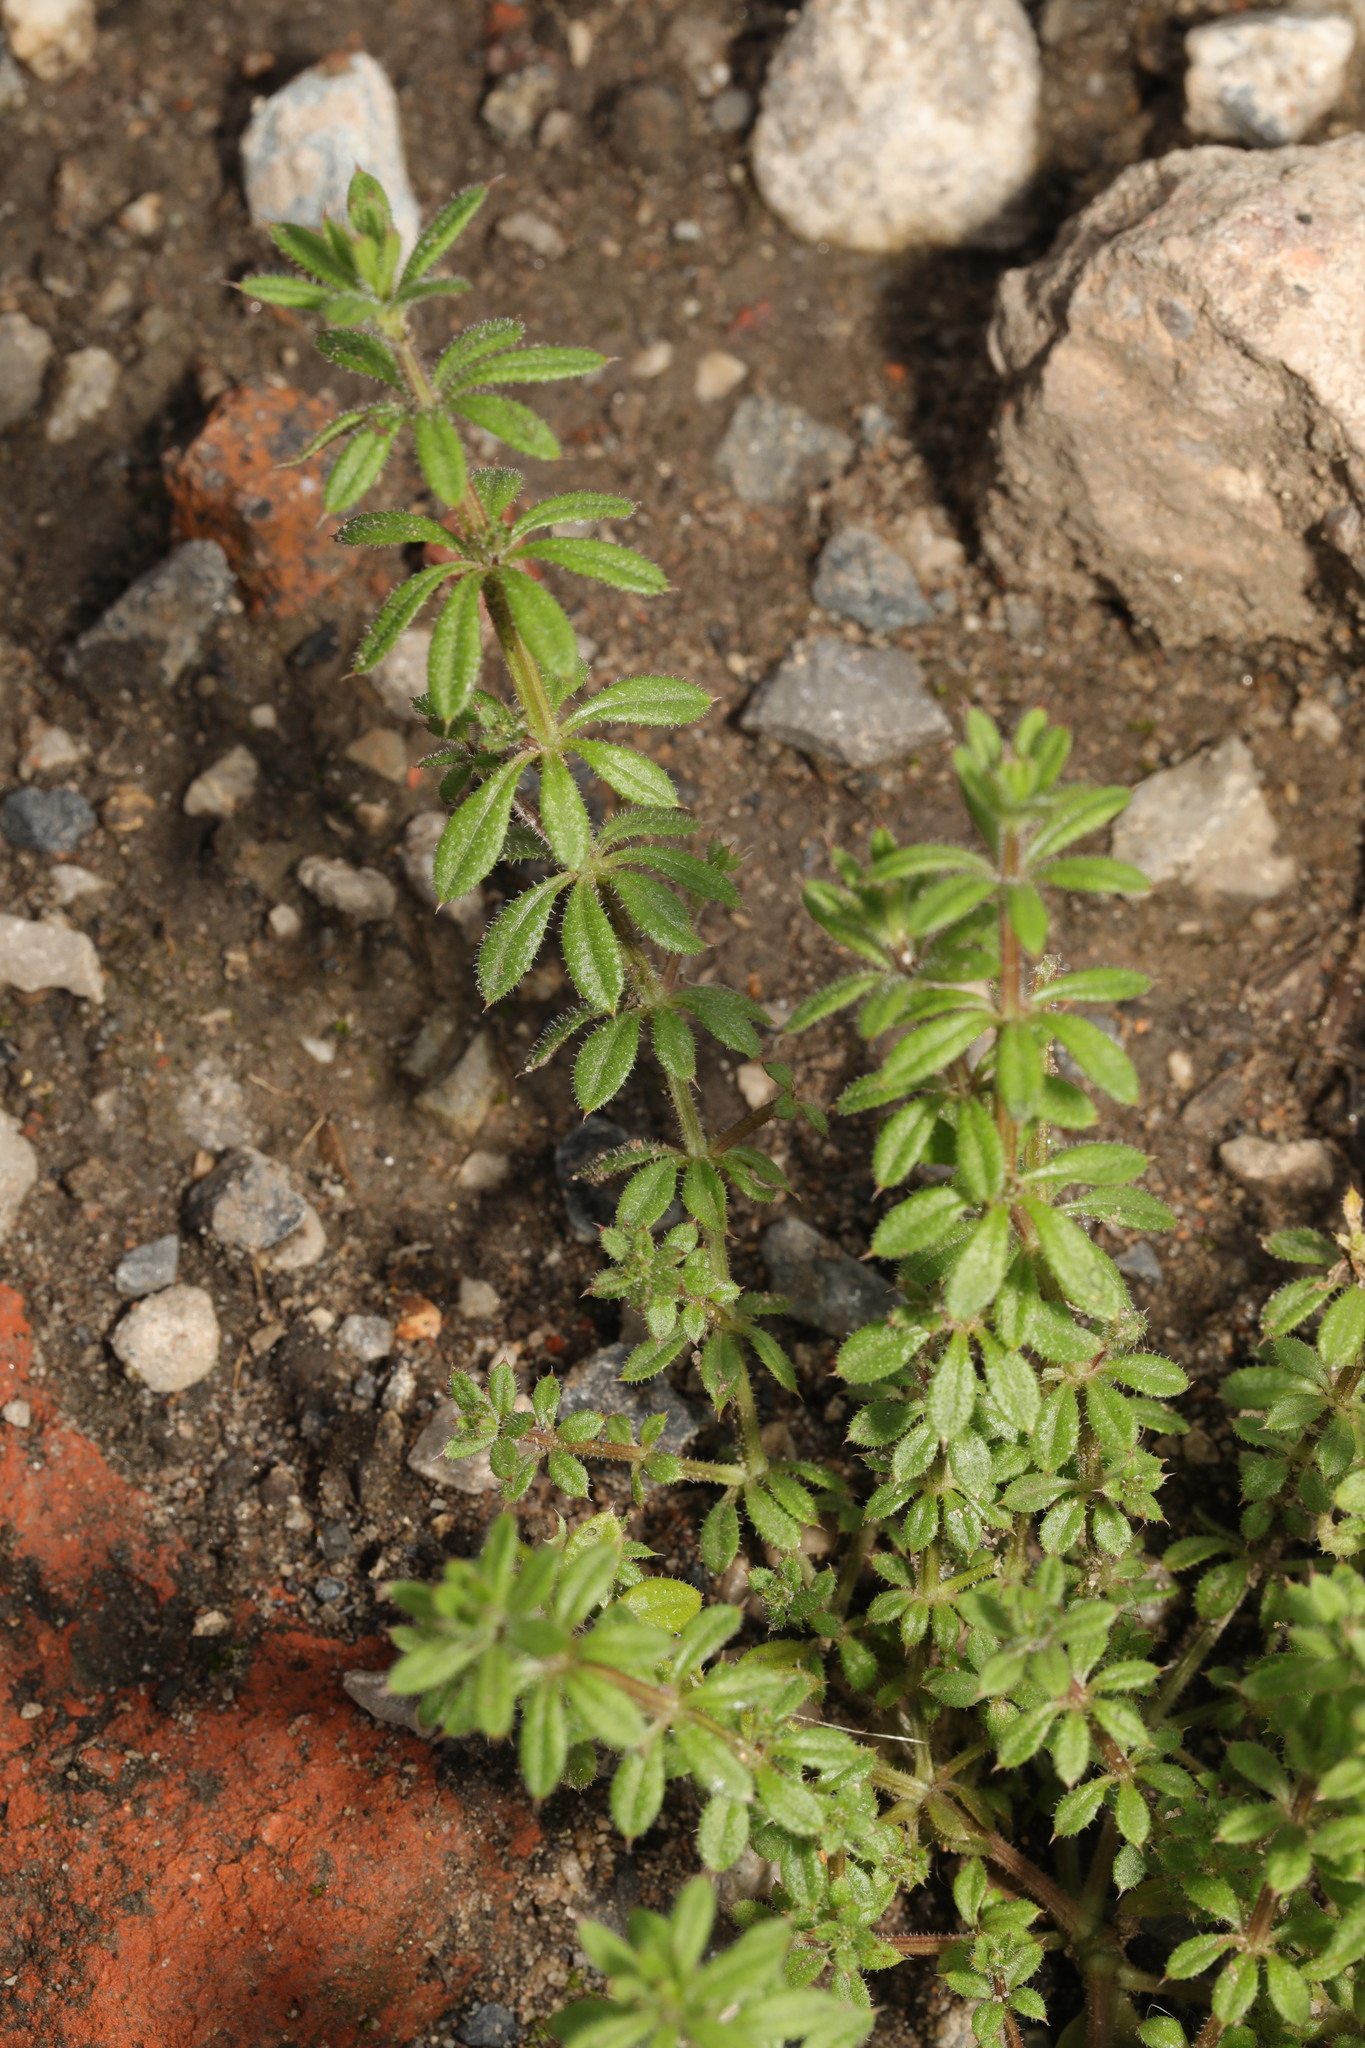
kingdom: Plantae
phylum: Tracheophyta
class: Magnoliopsida
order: Gentianales
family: Rubiaceae
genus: Galium
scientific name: Galium aparine
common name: Cleavers
